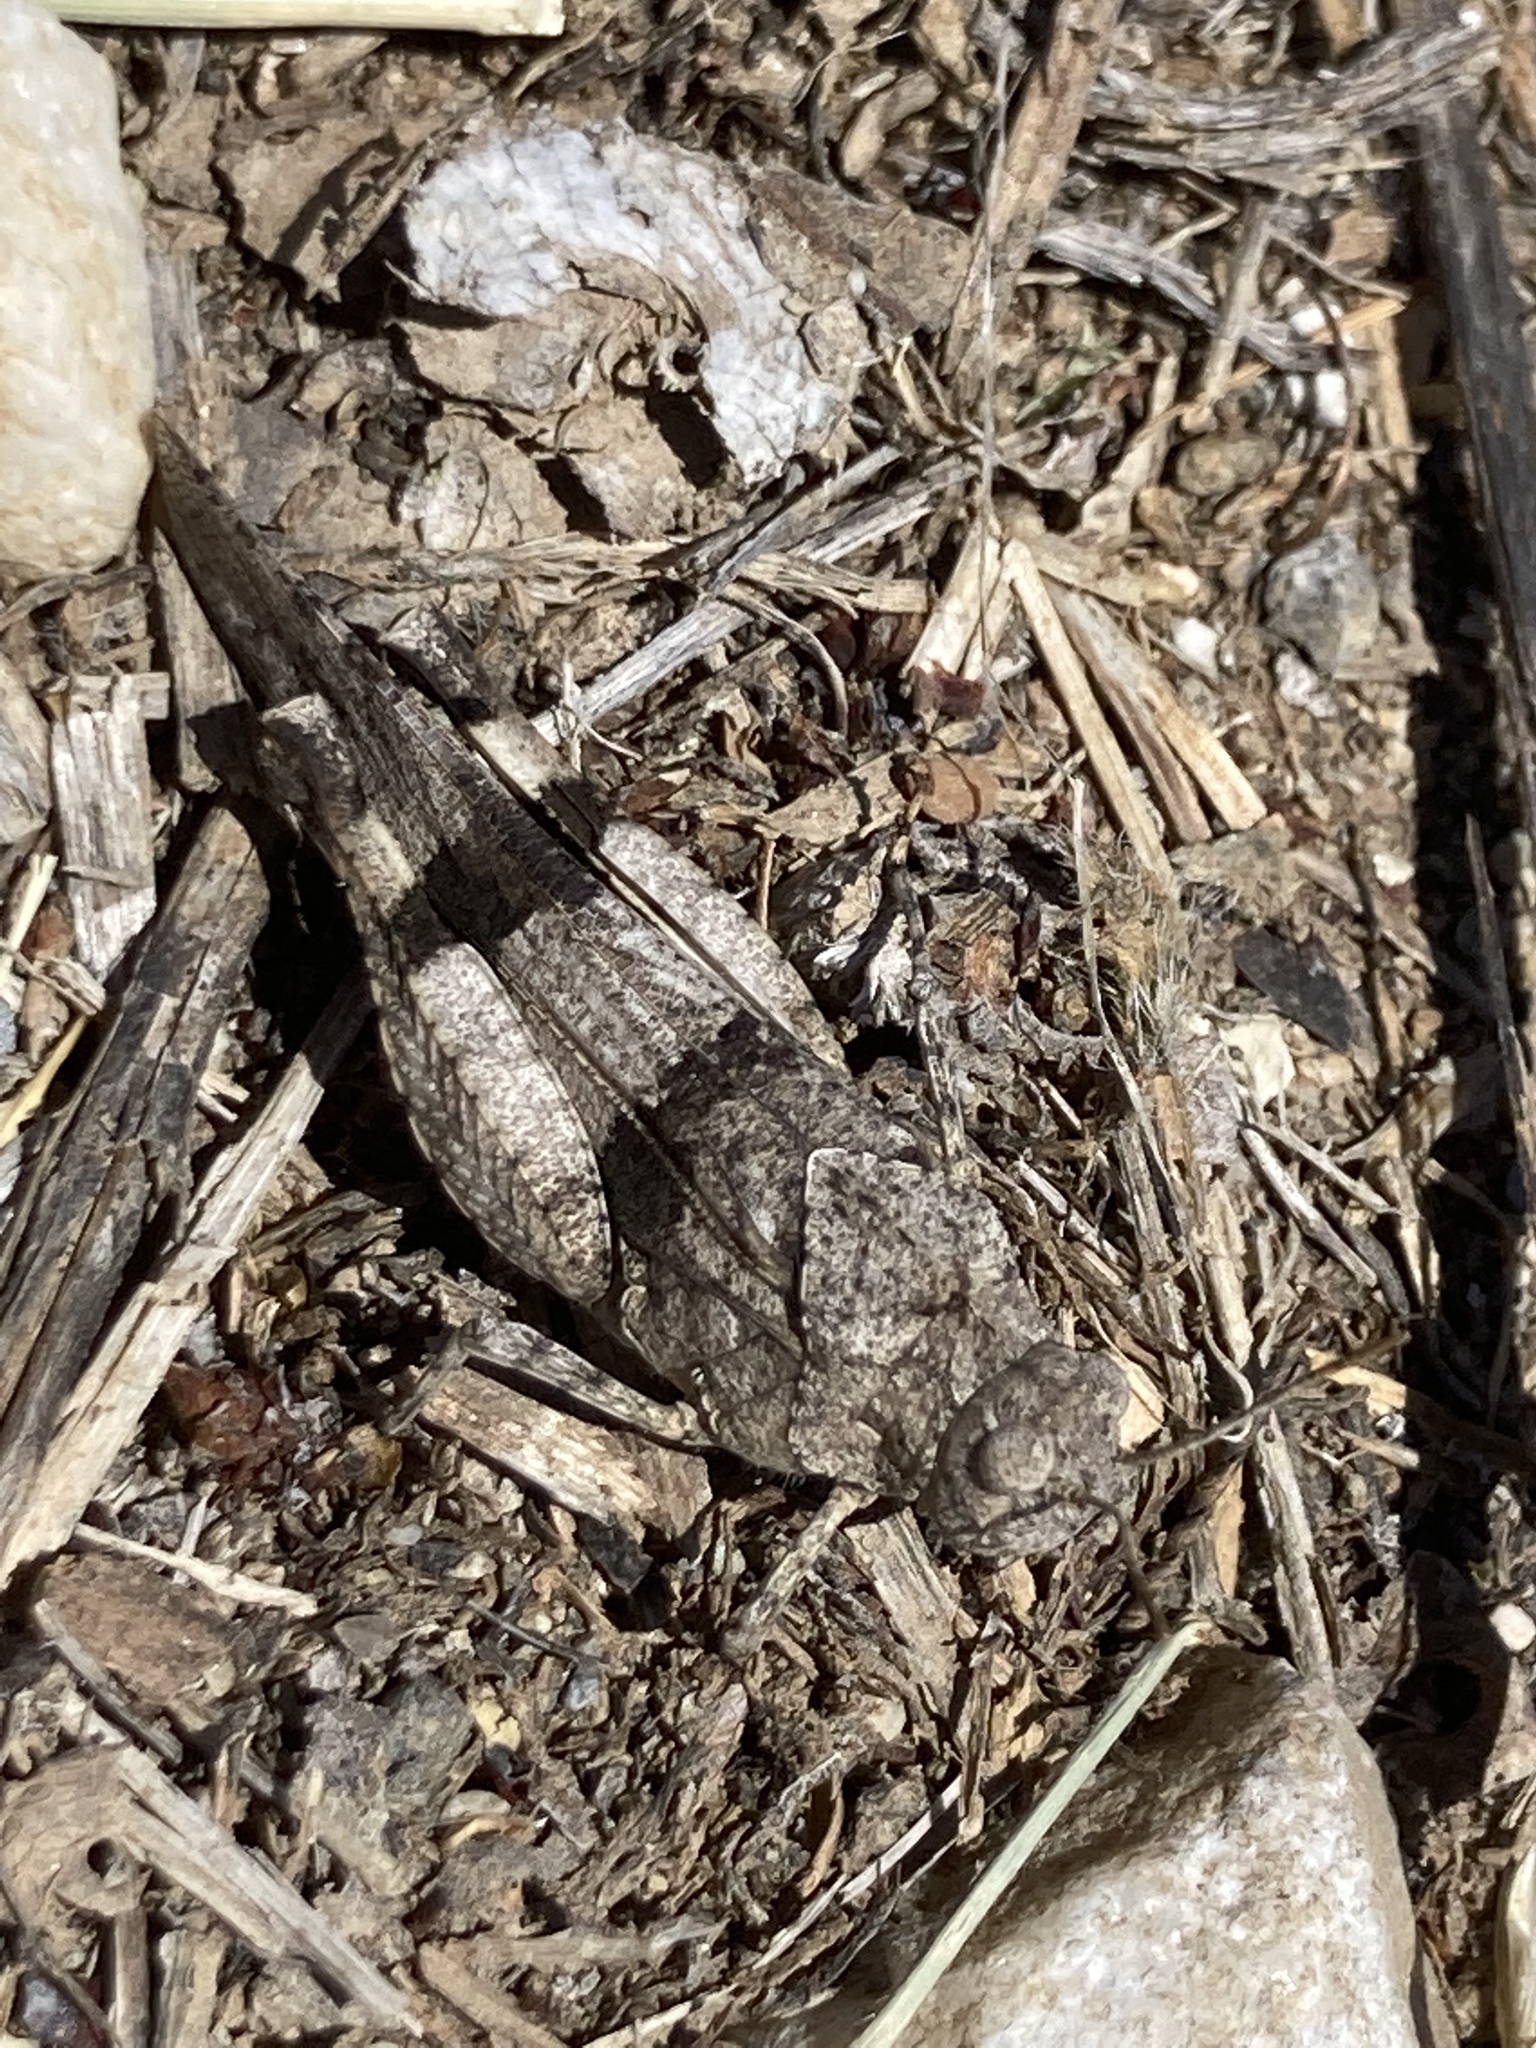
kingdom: Animalia
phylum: Arthropoda
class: Insecta
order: Orthoptera
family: Acrididae
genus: Oedipoda
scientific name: Oedipoda caerulescens
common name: Blue-winged grasshopper
